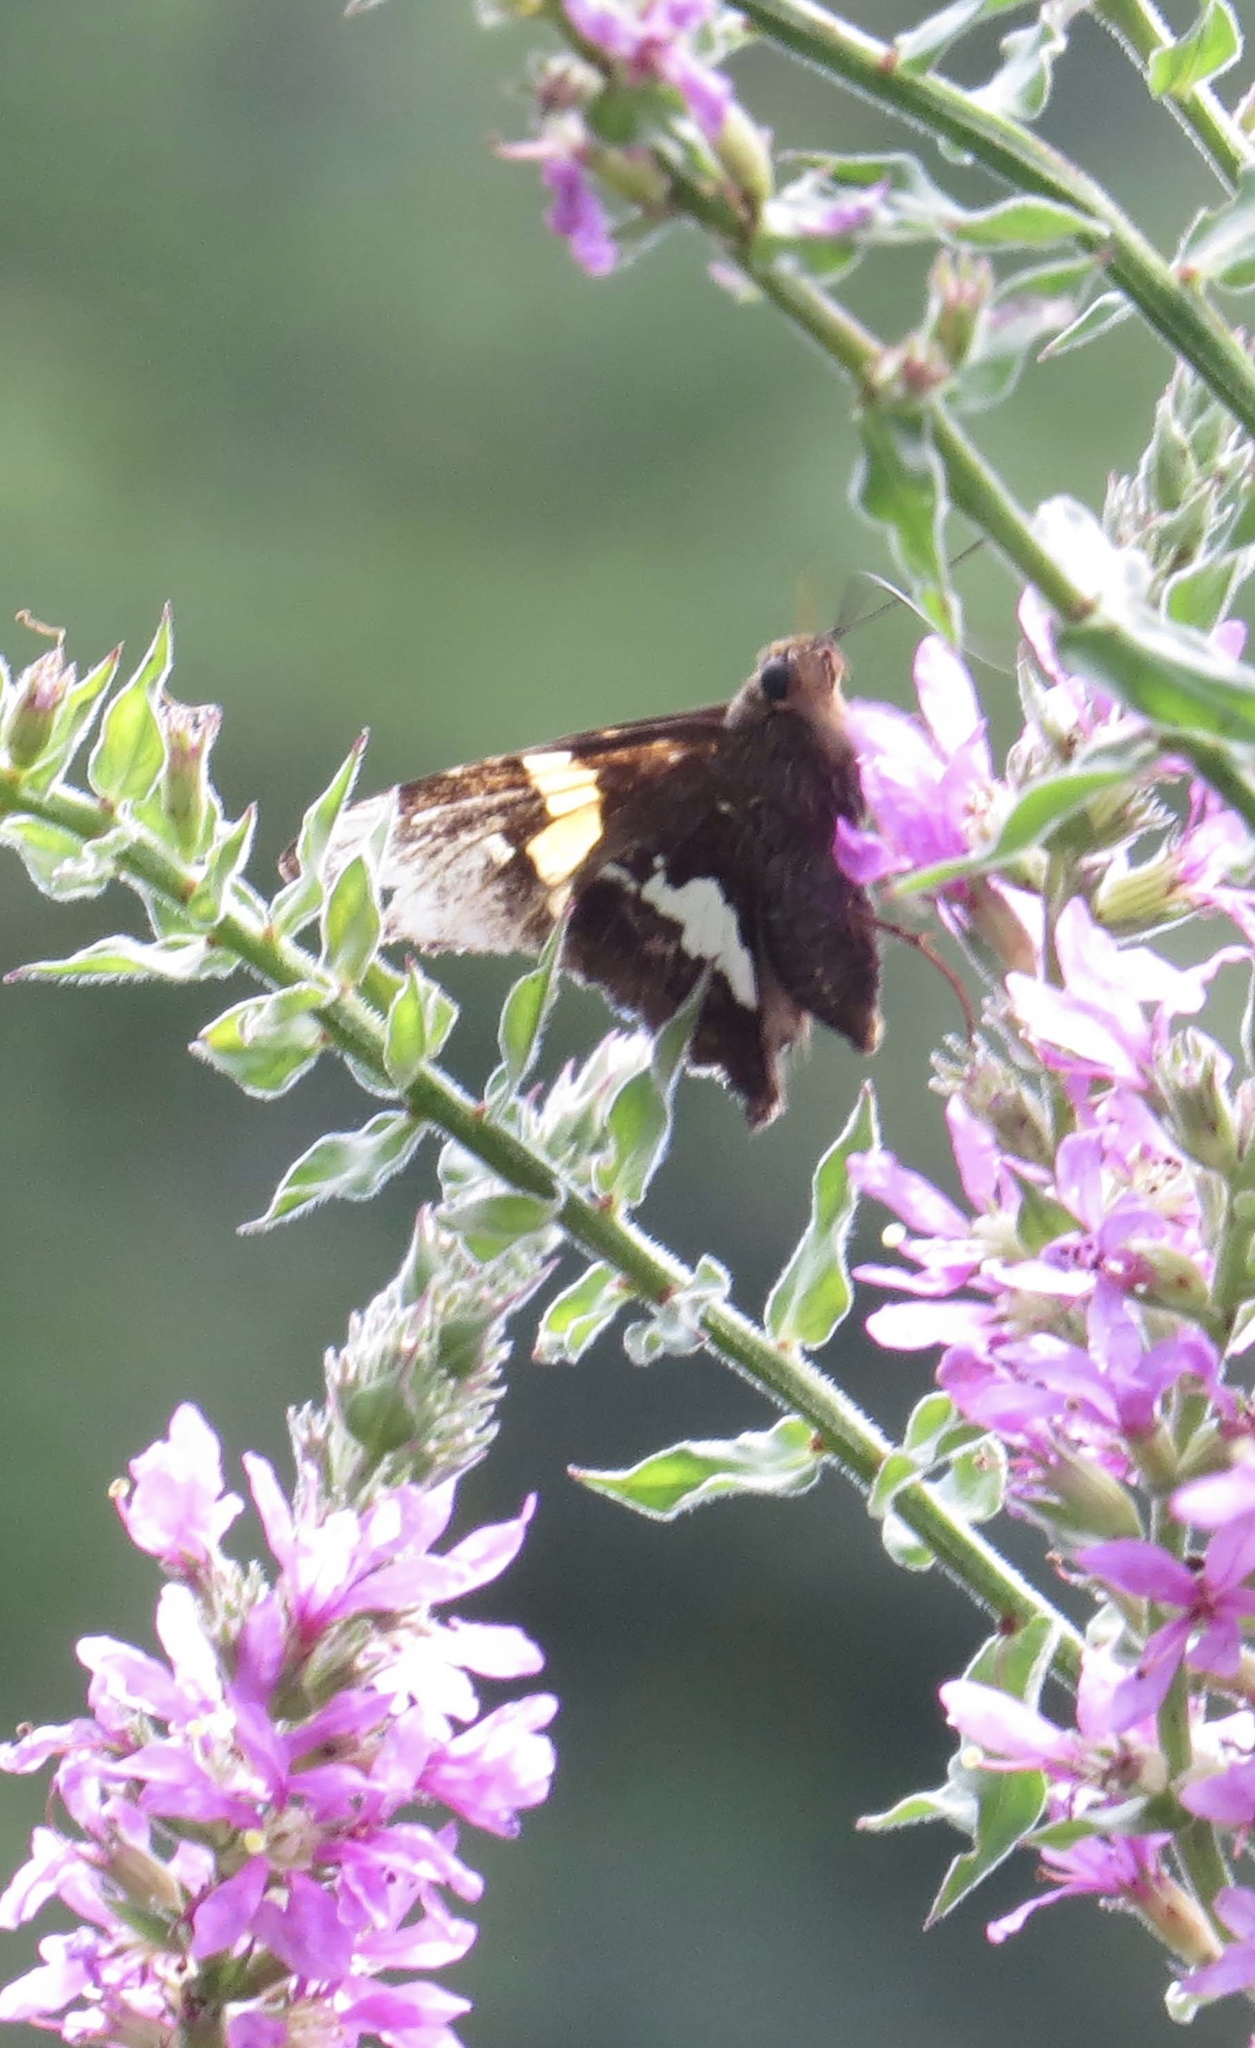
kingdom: Animalia
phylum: Arthropoda
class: Insecta
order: Lepidoptera
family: Hesperiidae
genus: Epargyreus
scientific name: Epargyreus clarus
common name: Silver-spotted skipper
